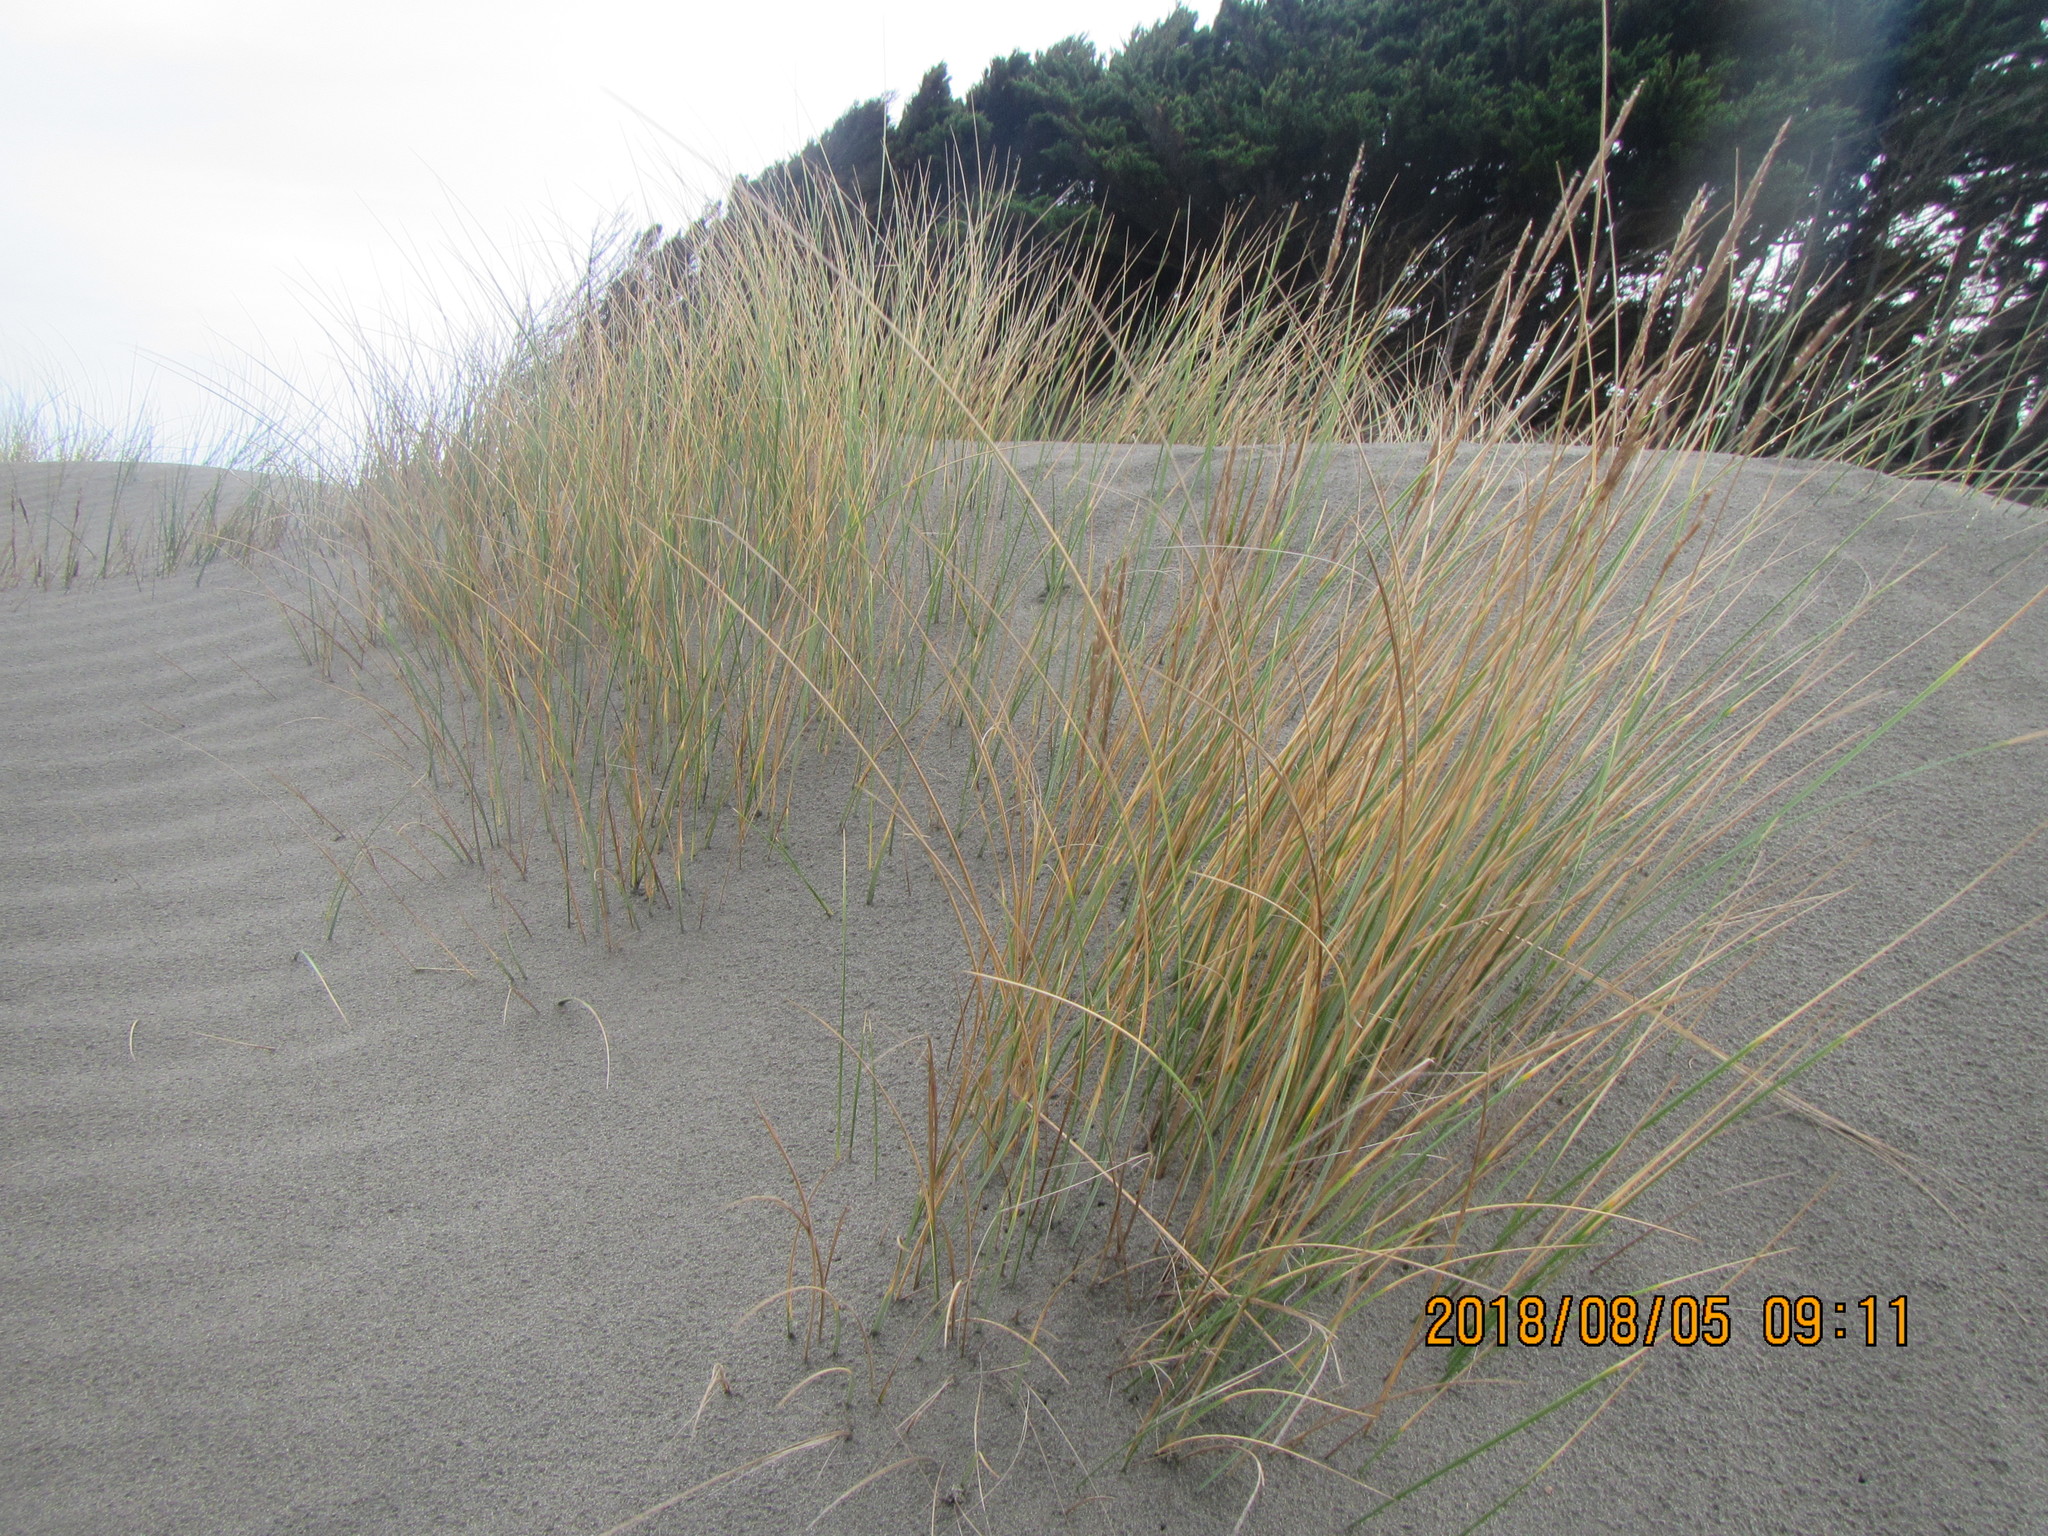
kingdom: Plantae
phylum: Tracheophyta
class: Liliopsida
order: Poales
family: Poaceae
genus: Calamagrostis
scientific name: Calamagrostis arenaria
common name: European beachgrass
